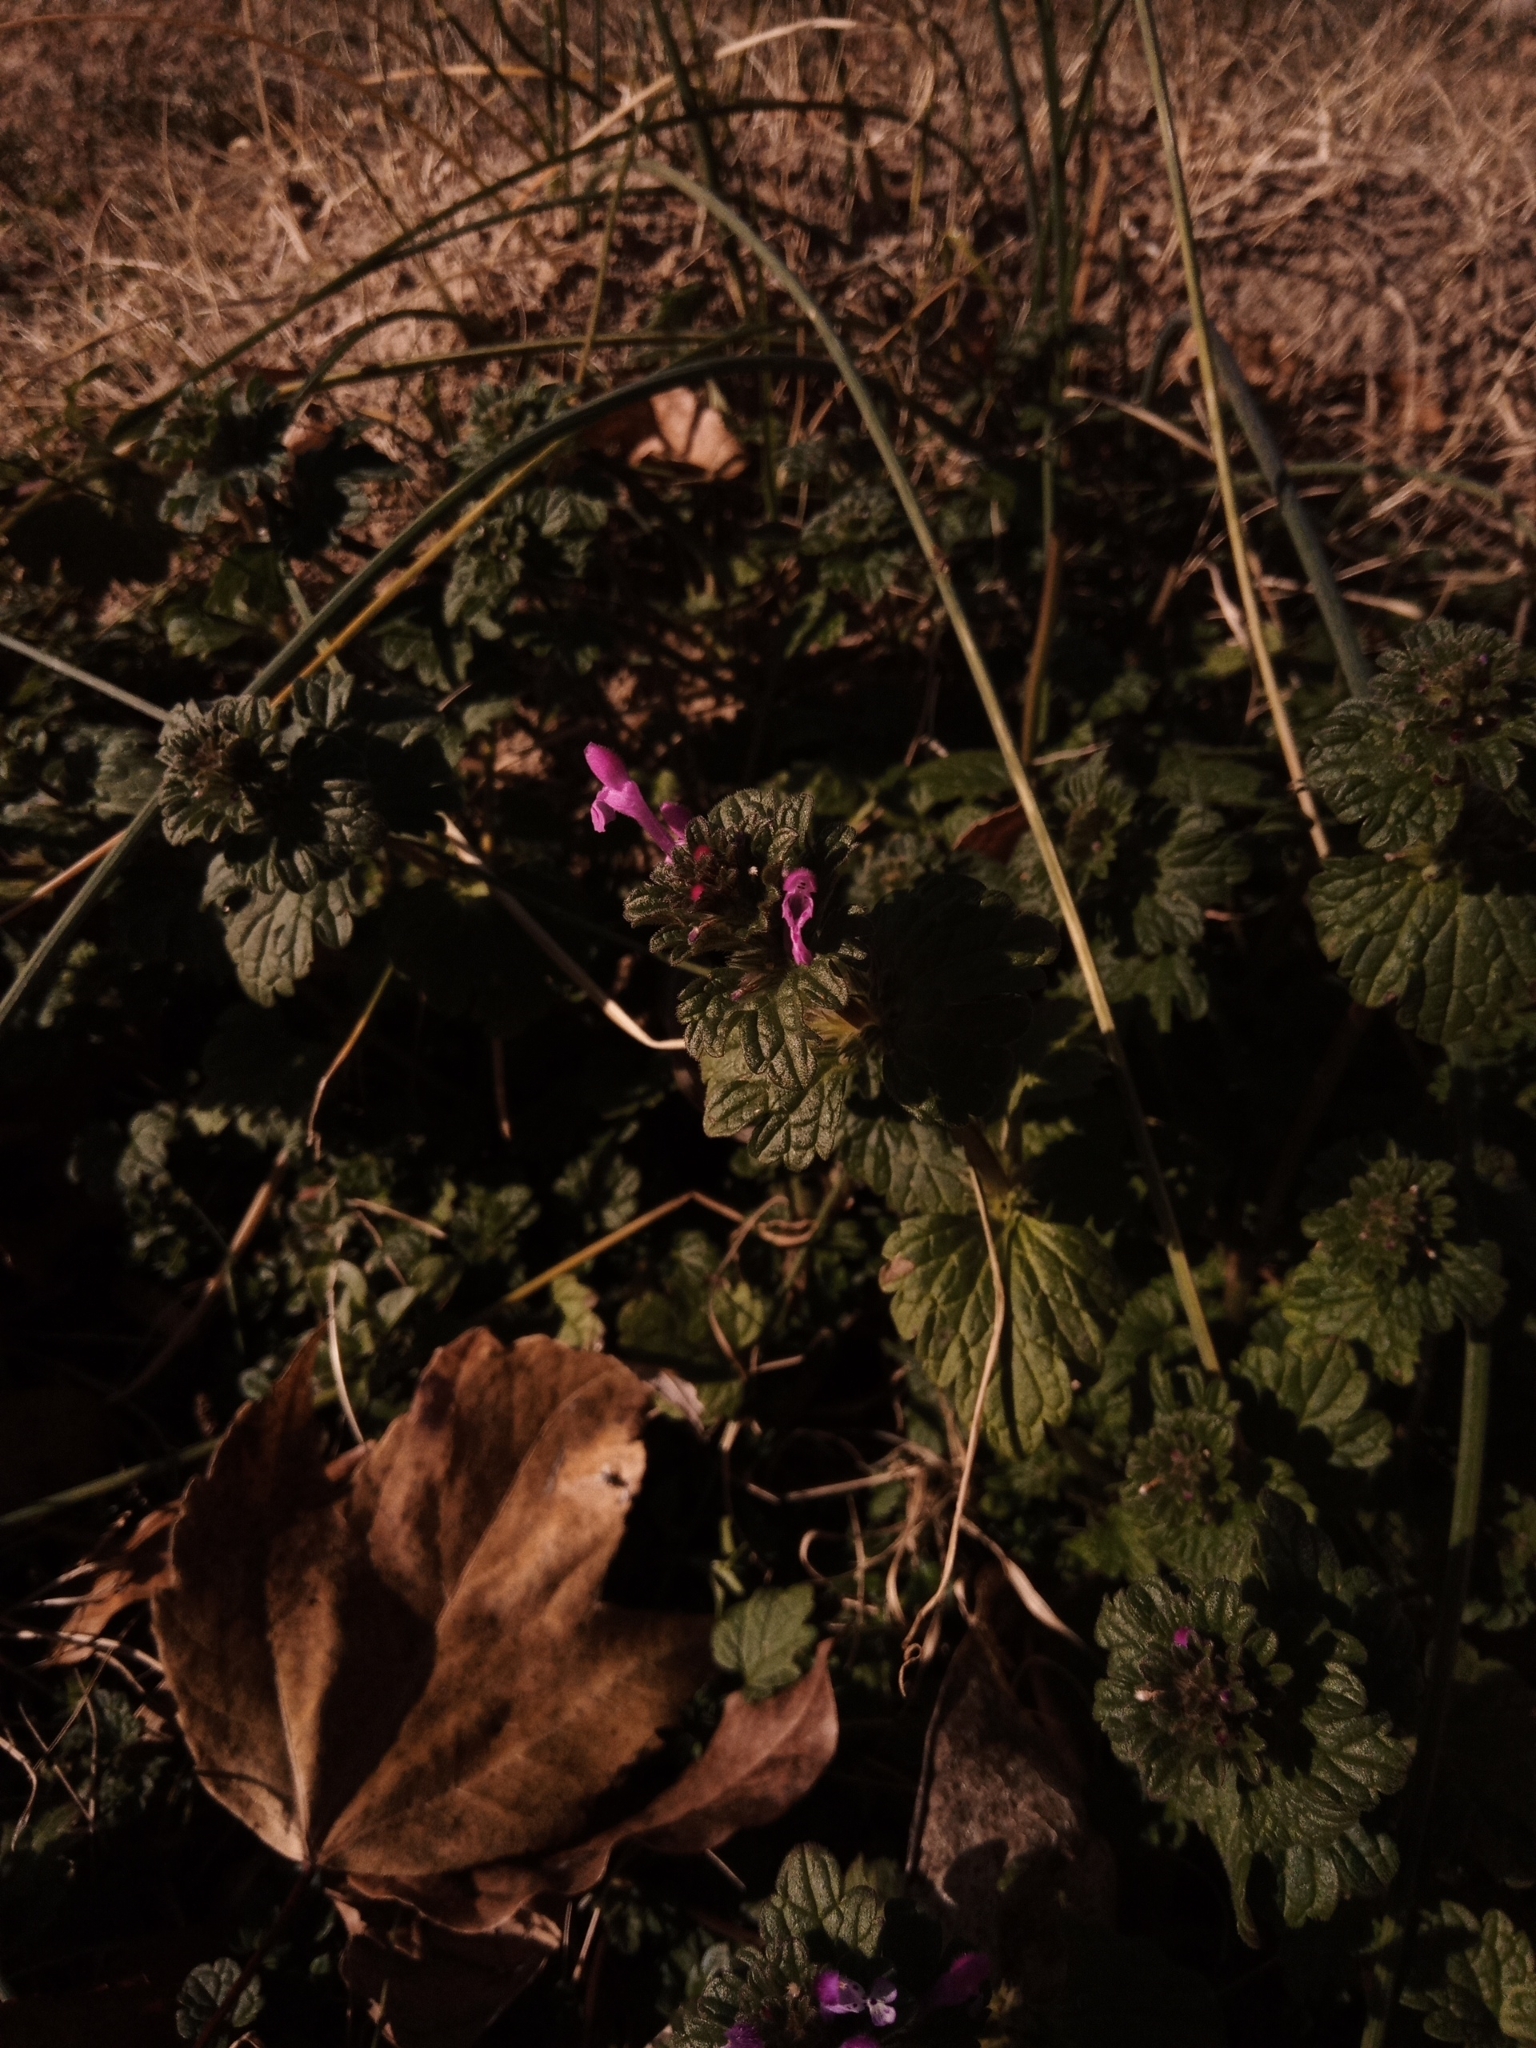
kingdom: Plantae
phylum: Tracheophyta
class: Magnoliopsida
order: Lamiales
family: Lamiaceae
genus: Lamium
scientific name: Lamium amplexicaule
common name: Henbit dead-nettle
